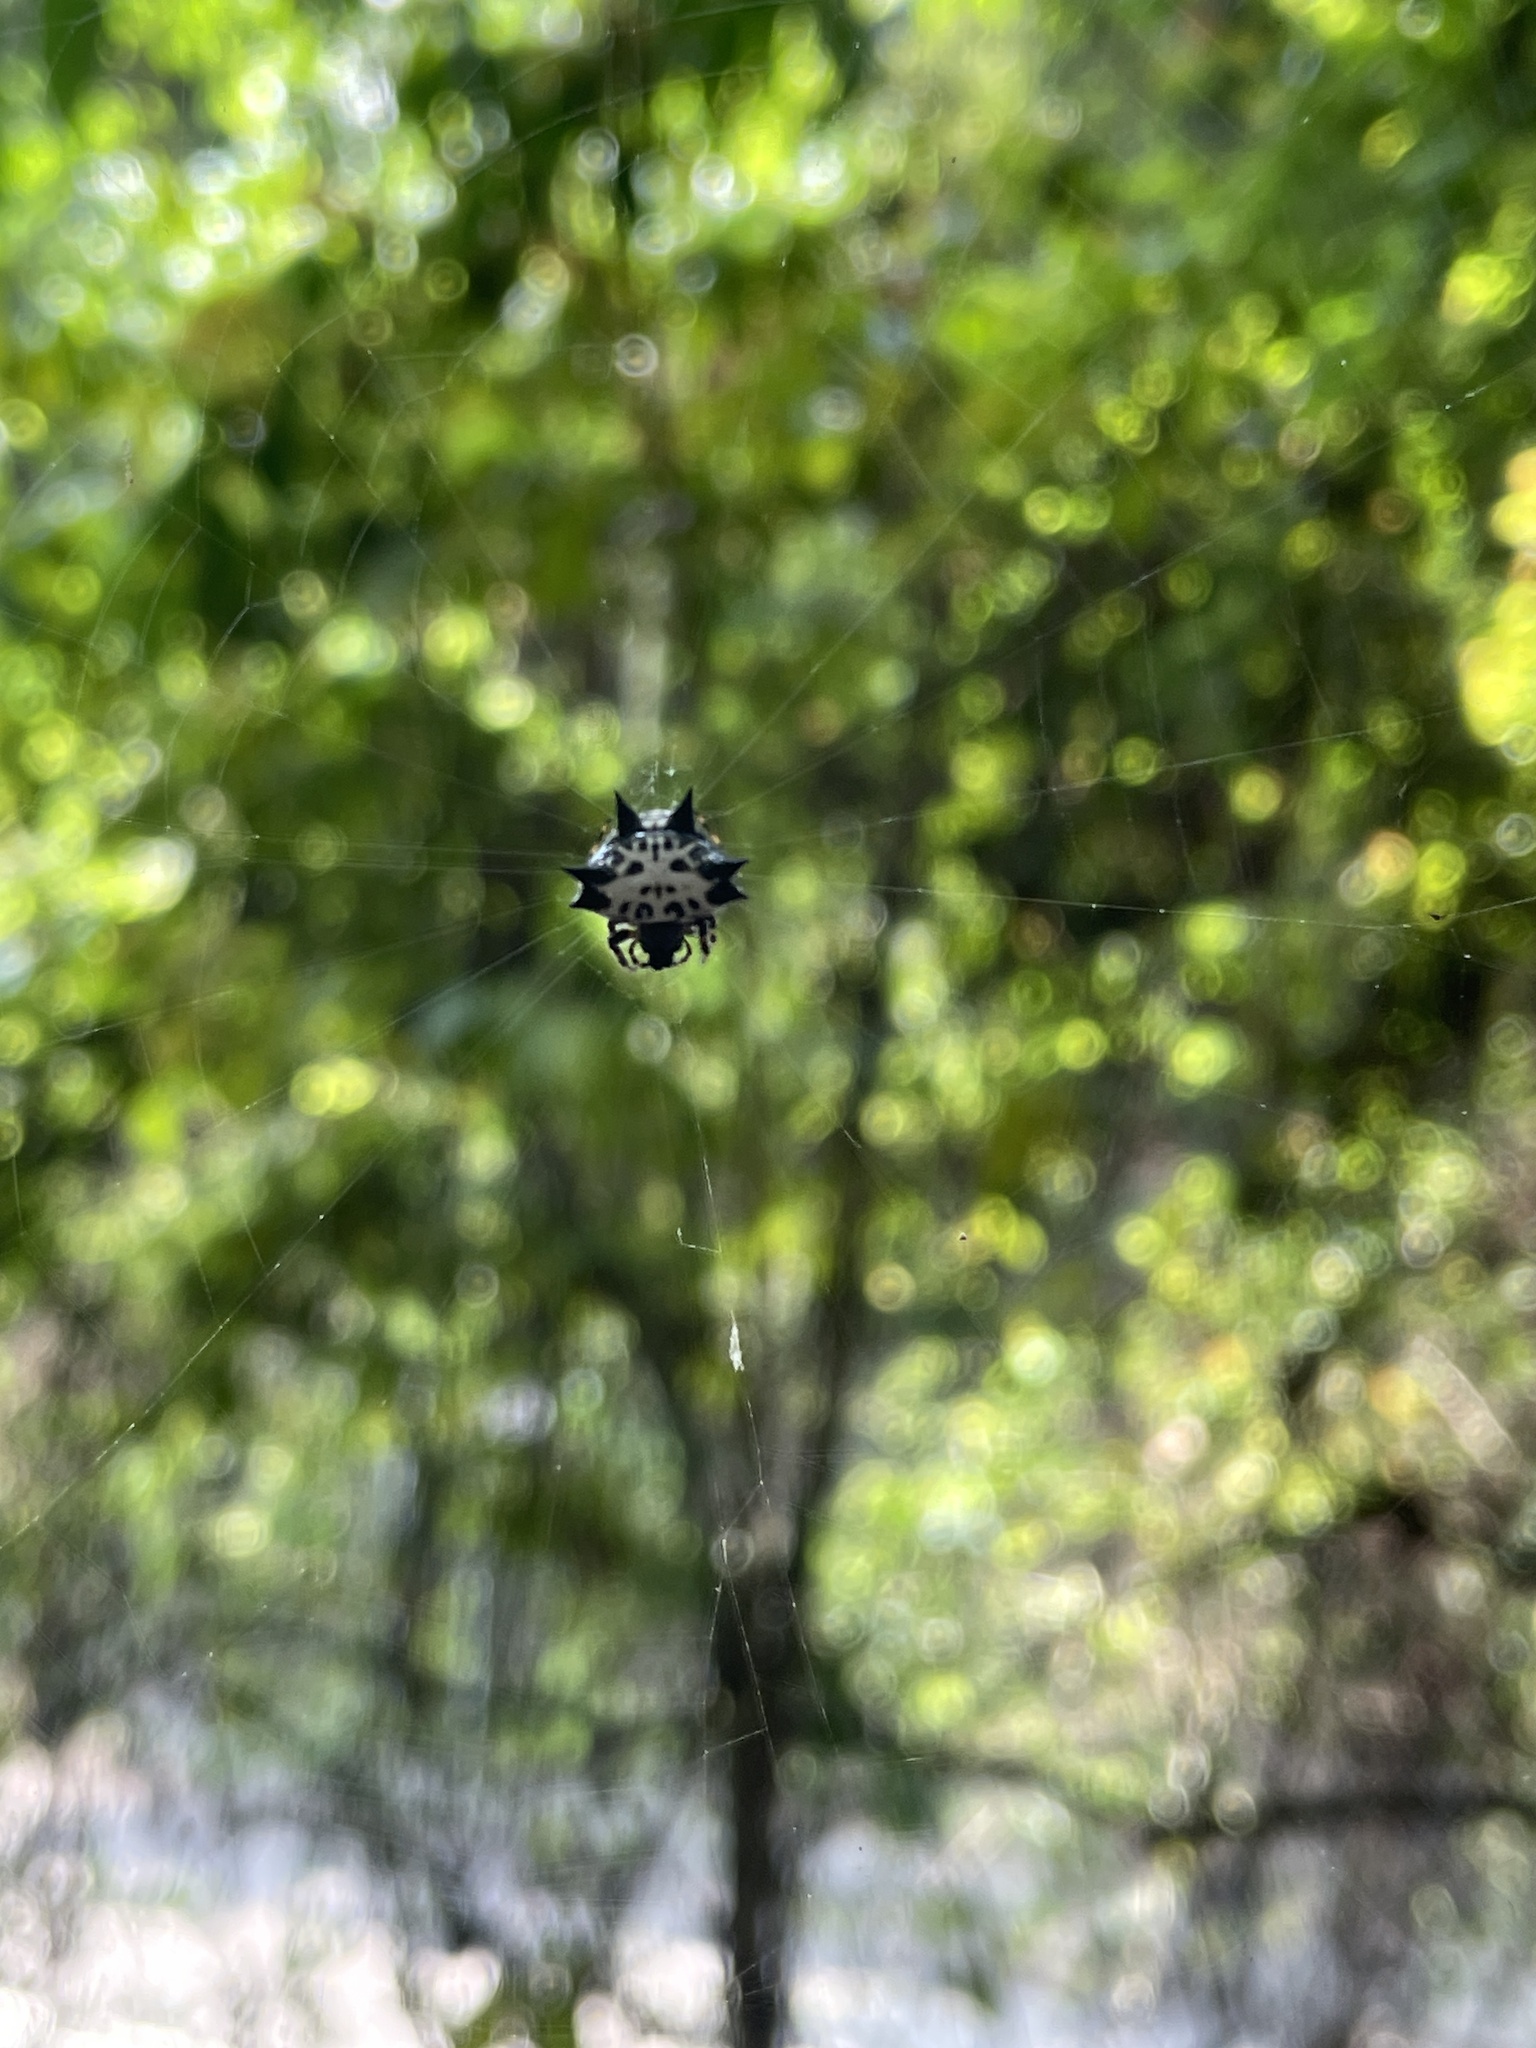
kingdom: Animalia
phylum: Arthropoda
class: Arachnida
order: Araneae
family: Araneidae
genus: Gasteracantha
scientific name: Gasteracantha kuhli
